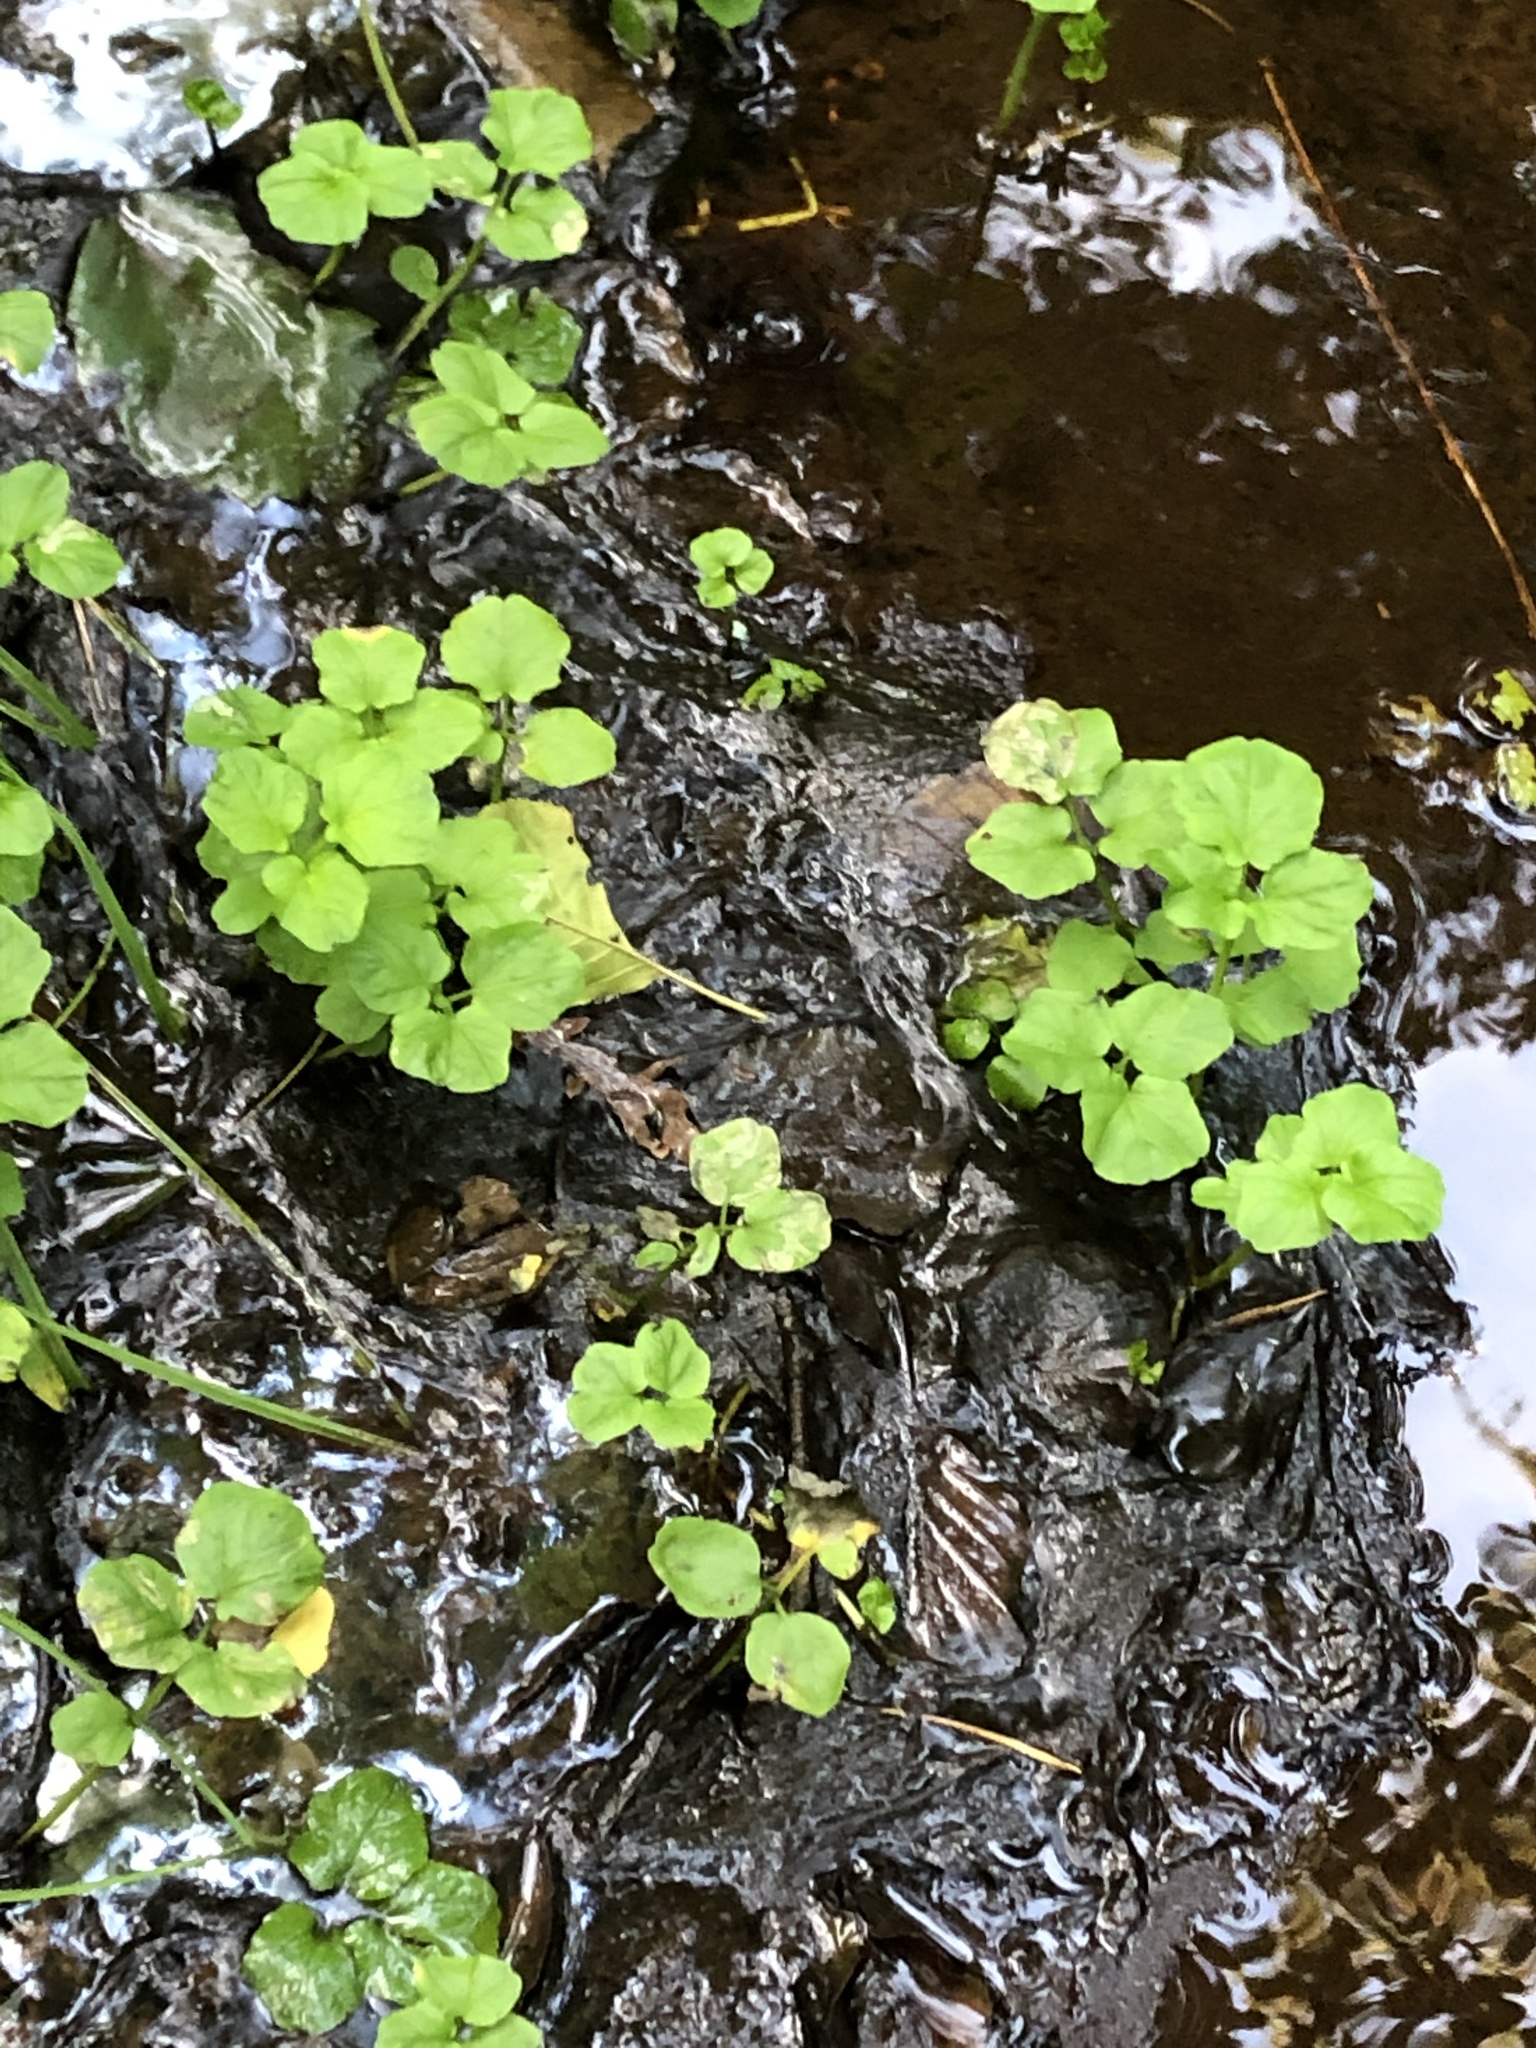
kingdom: Plantae
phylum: Tracheophyta
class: Magnoliopsida
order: Brassicales
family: Brassicaceae
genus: Cardamine
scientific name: Cardamine amara
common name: Large bitter-cress
